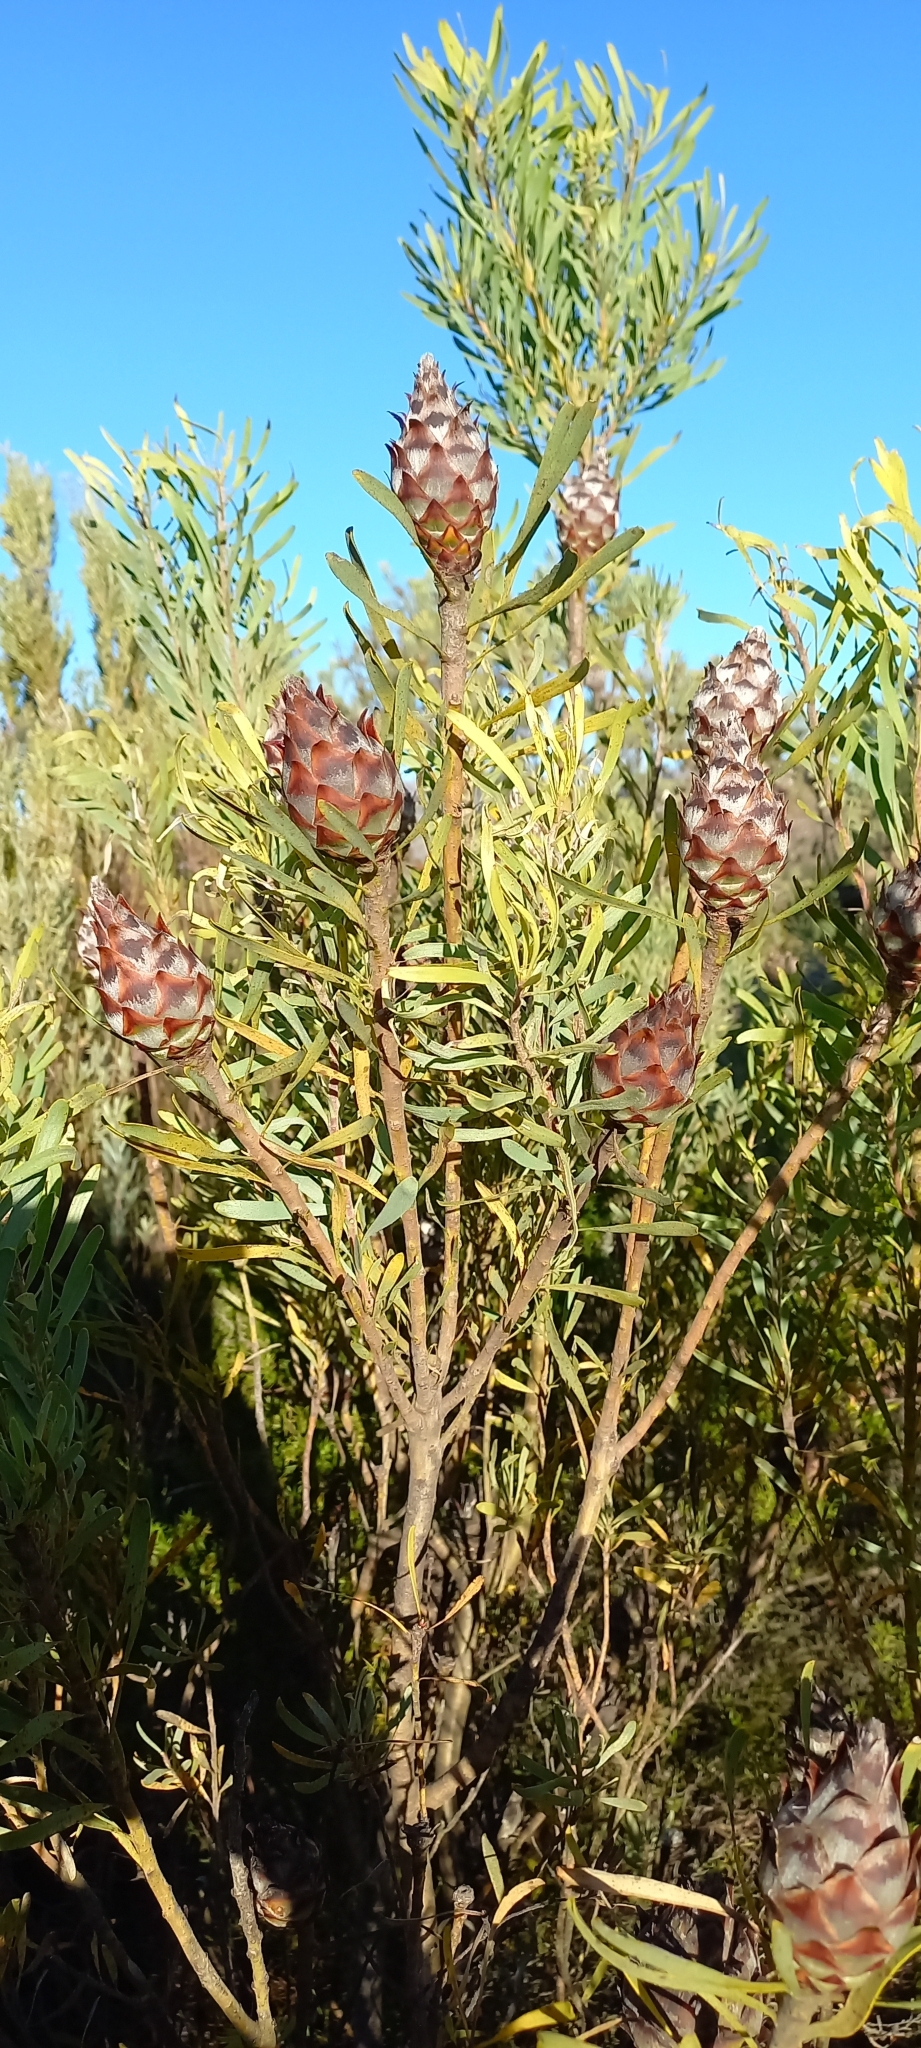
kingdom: Plantae
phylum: Tracheophyta
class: Magnoliopsida
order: Proteales
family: Proteaceae
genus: Leucadendron
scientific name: Leucadendron rubrum
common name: Spinning top
